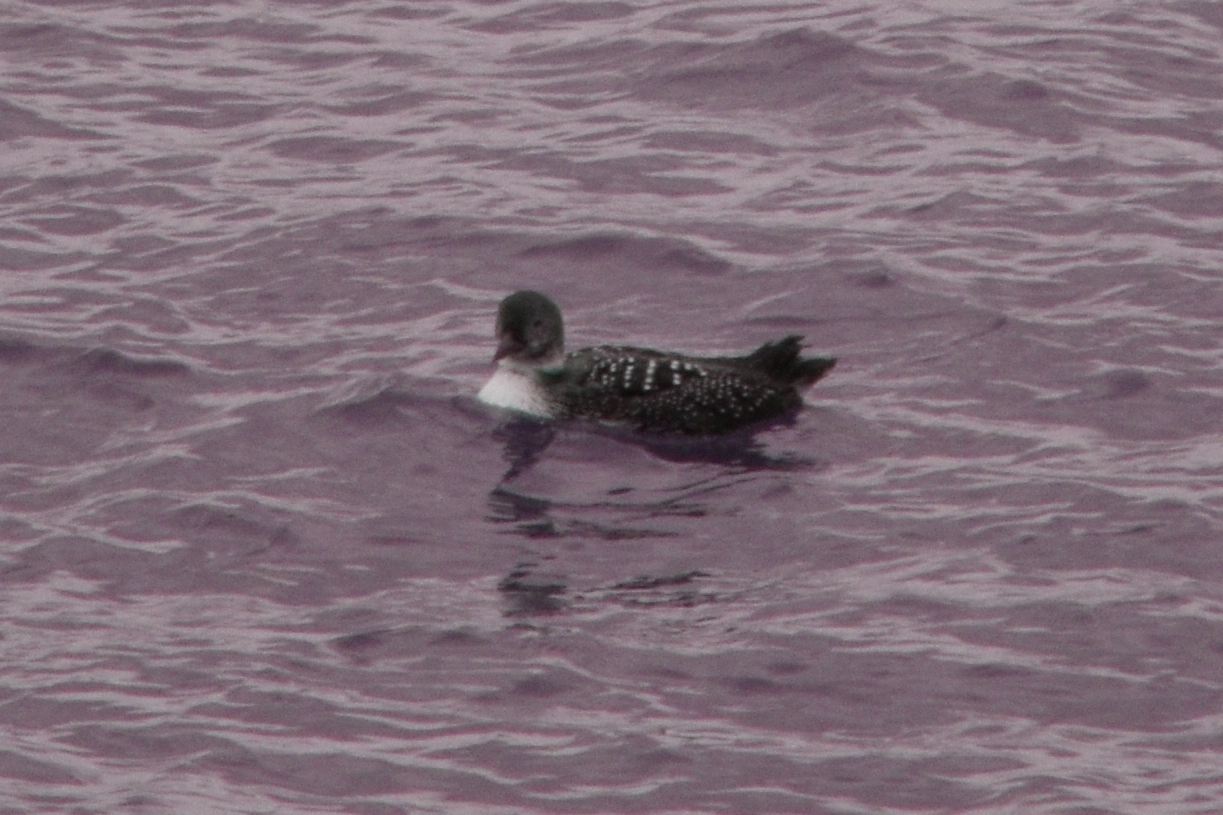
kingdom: Animalia
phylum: Chordata
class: Aves
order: Gaviiformes
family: Gaviidae
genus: Gavia
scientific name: Gavia immer
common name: Common loon
